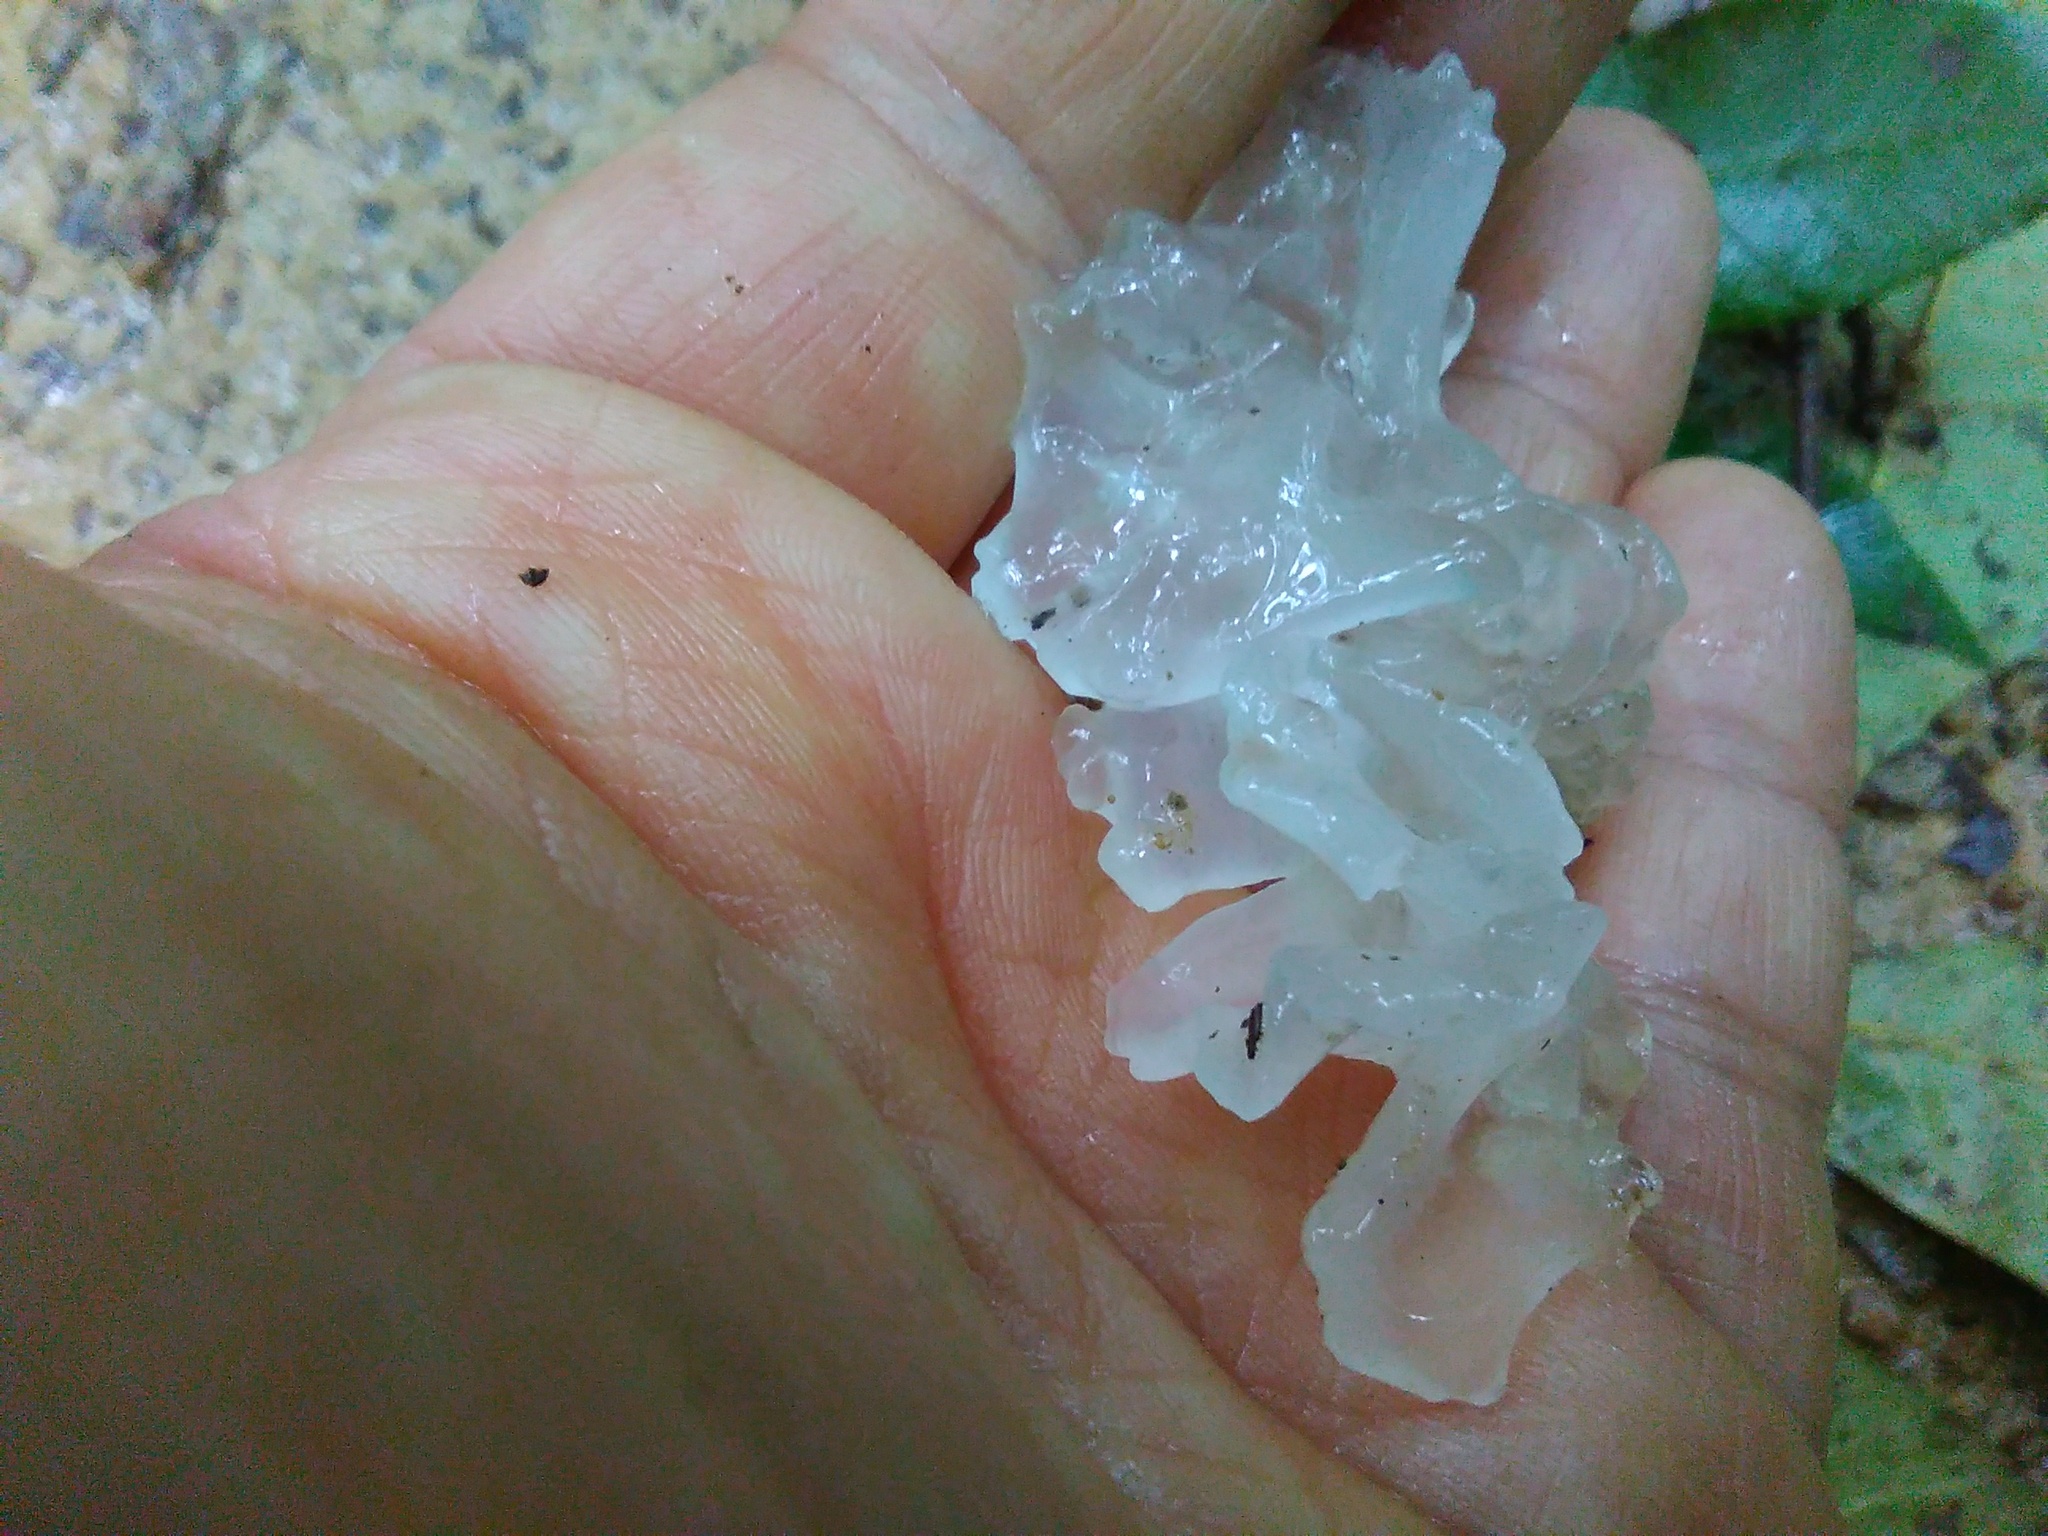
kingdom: Fungi
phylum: Basidiomycota
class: Tremellomycetes
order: Tremellales
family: Tremellaceae
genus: Tremella
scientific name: Tremella fuciformis
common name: Snow fungus
